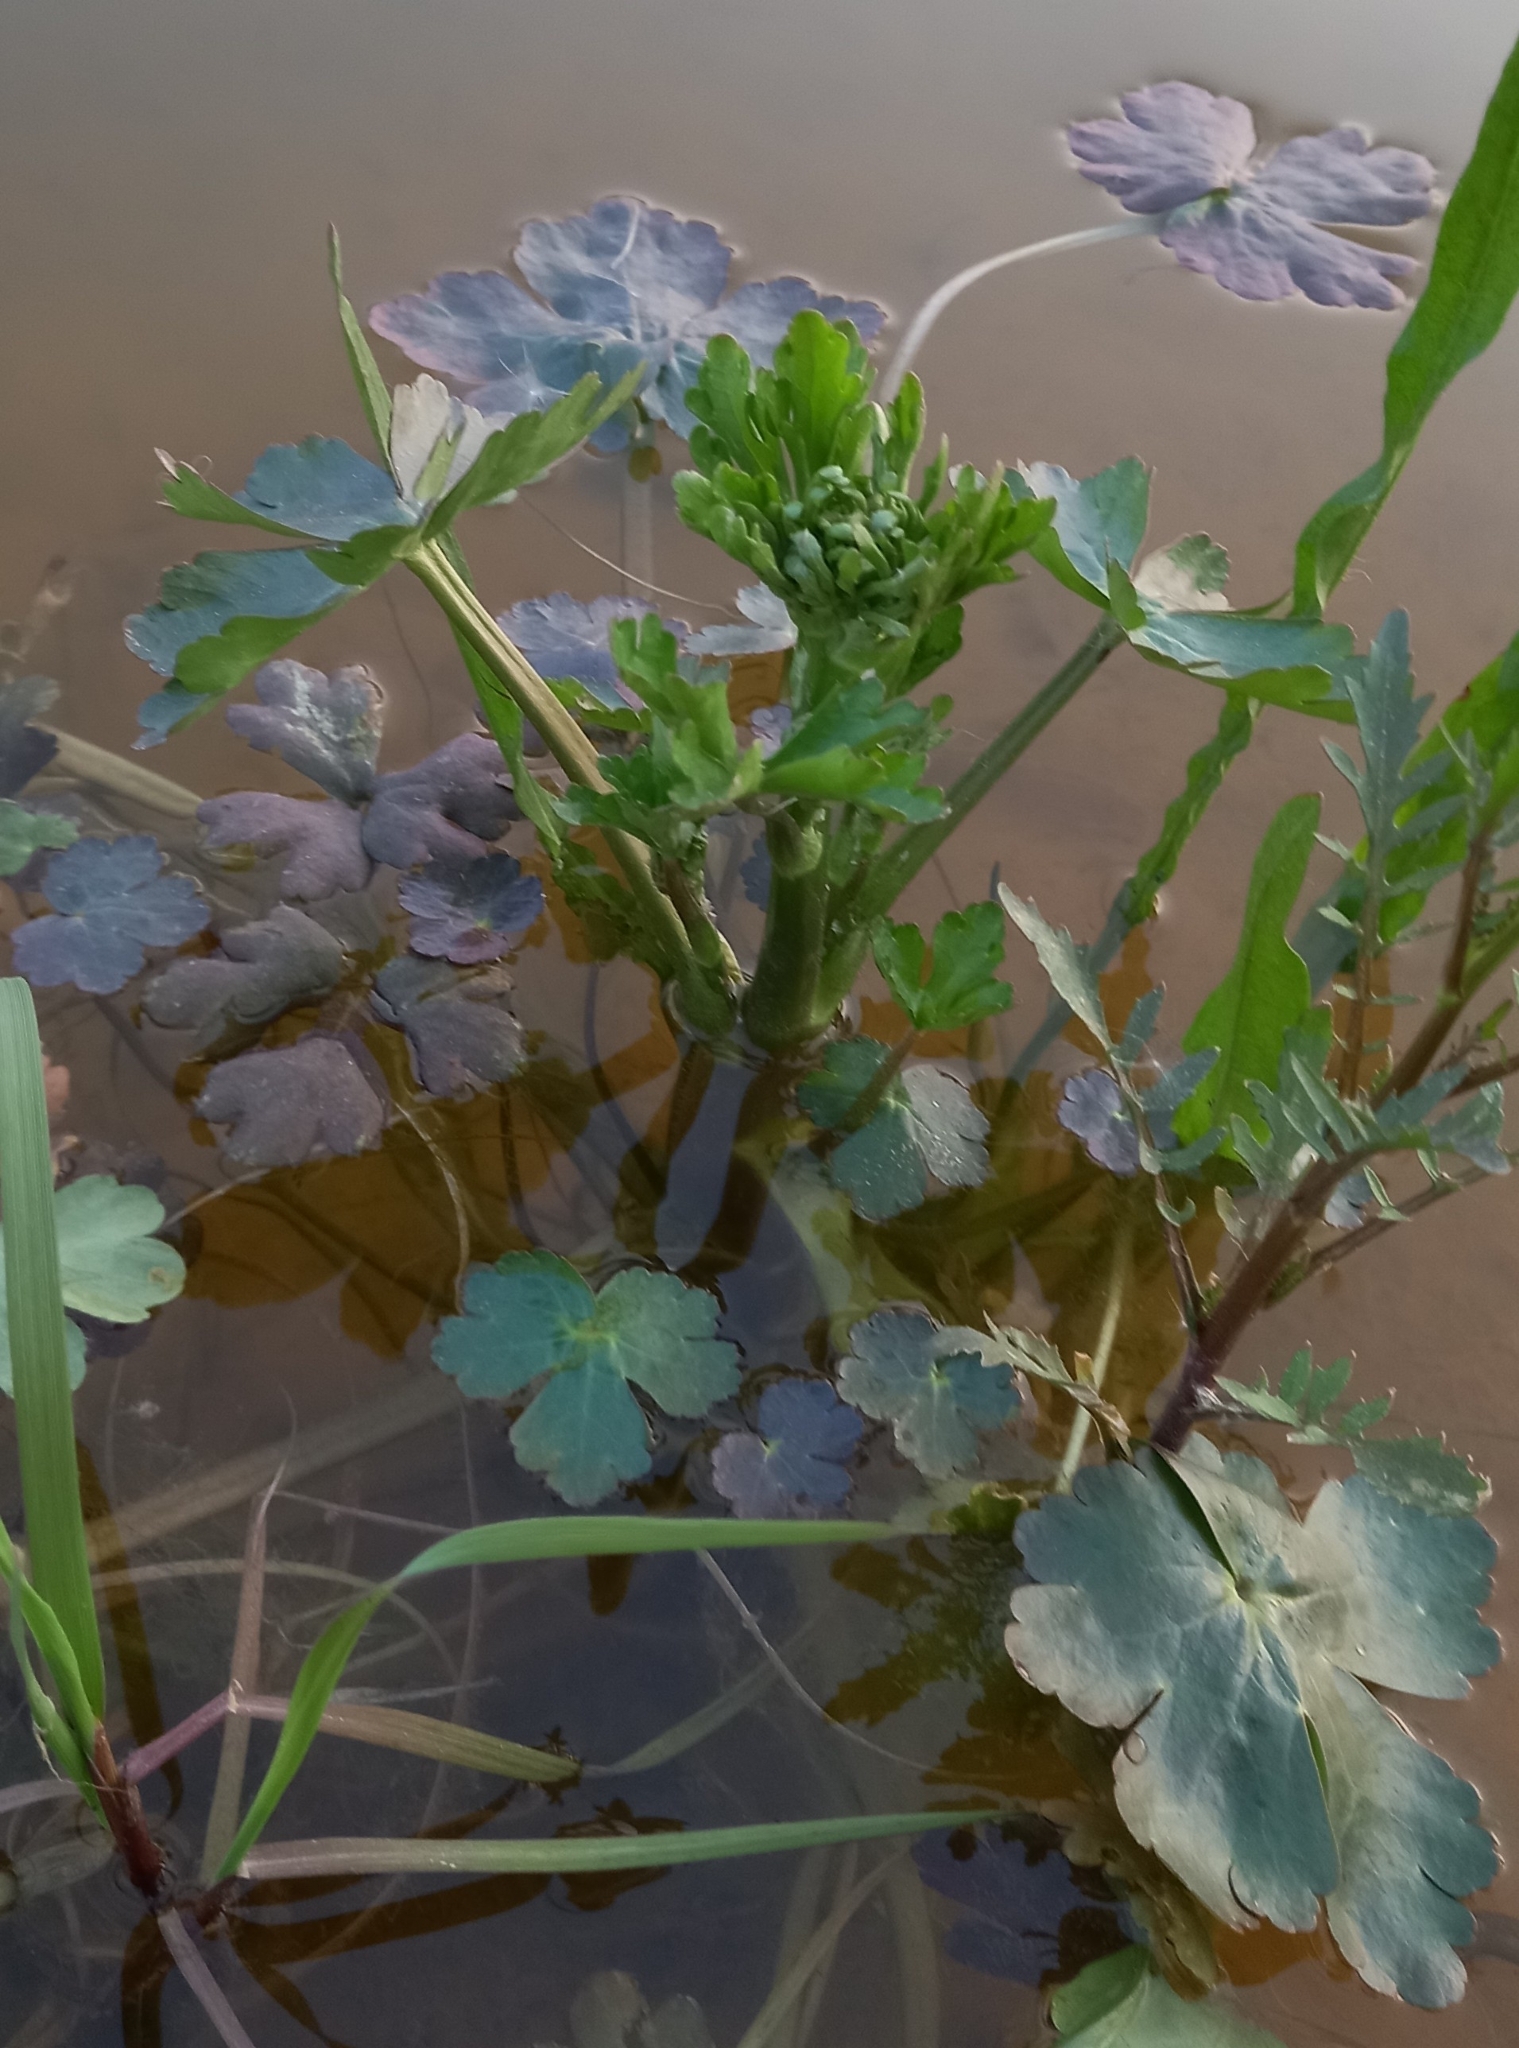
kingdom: Plantae
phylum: Tracheophyta
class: Magnoliopsida
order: Ranunculales
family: Ranunculaceae
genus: Ranunculus
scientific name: Ranunculus sceleratus
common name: Celery-leaved buttercup
